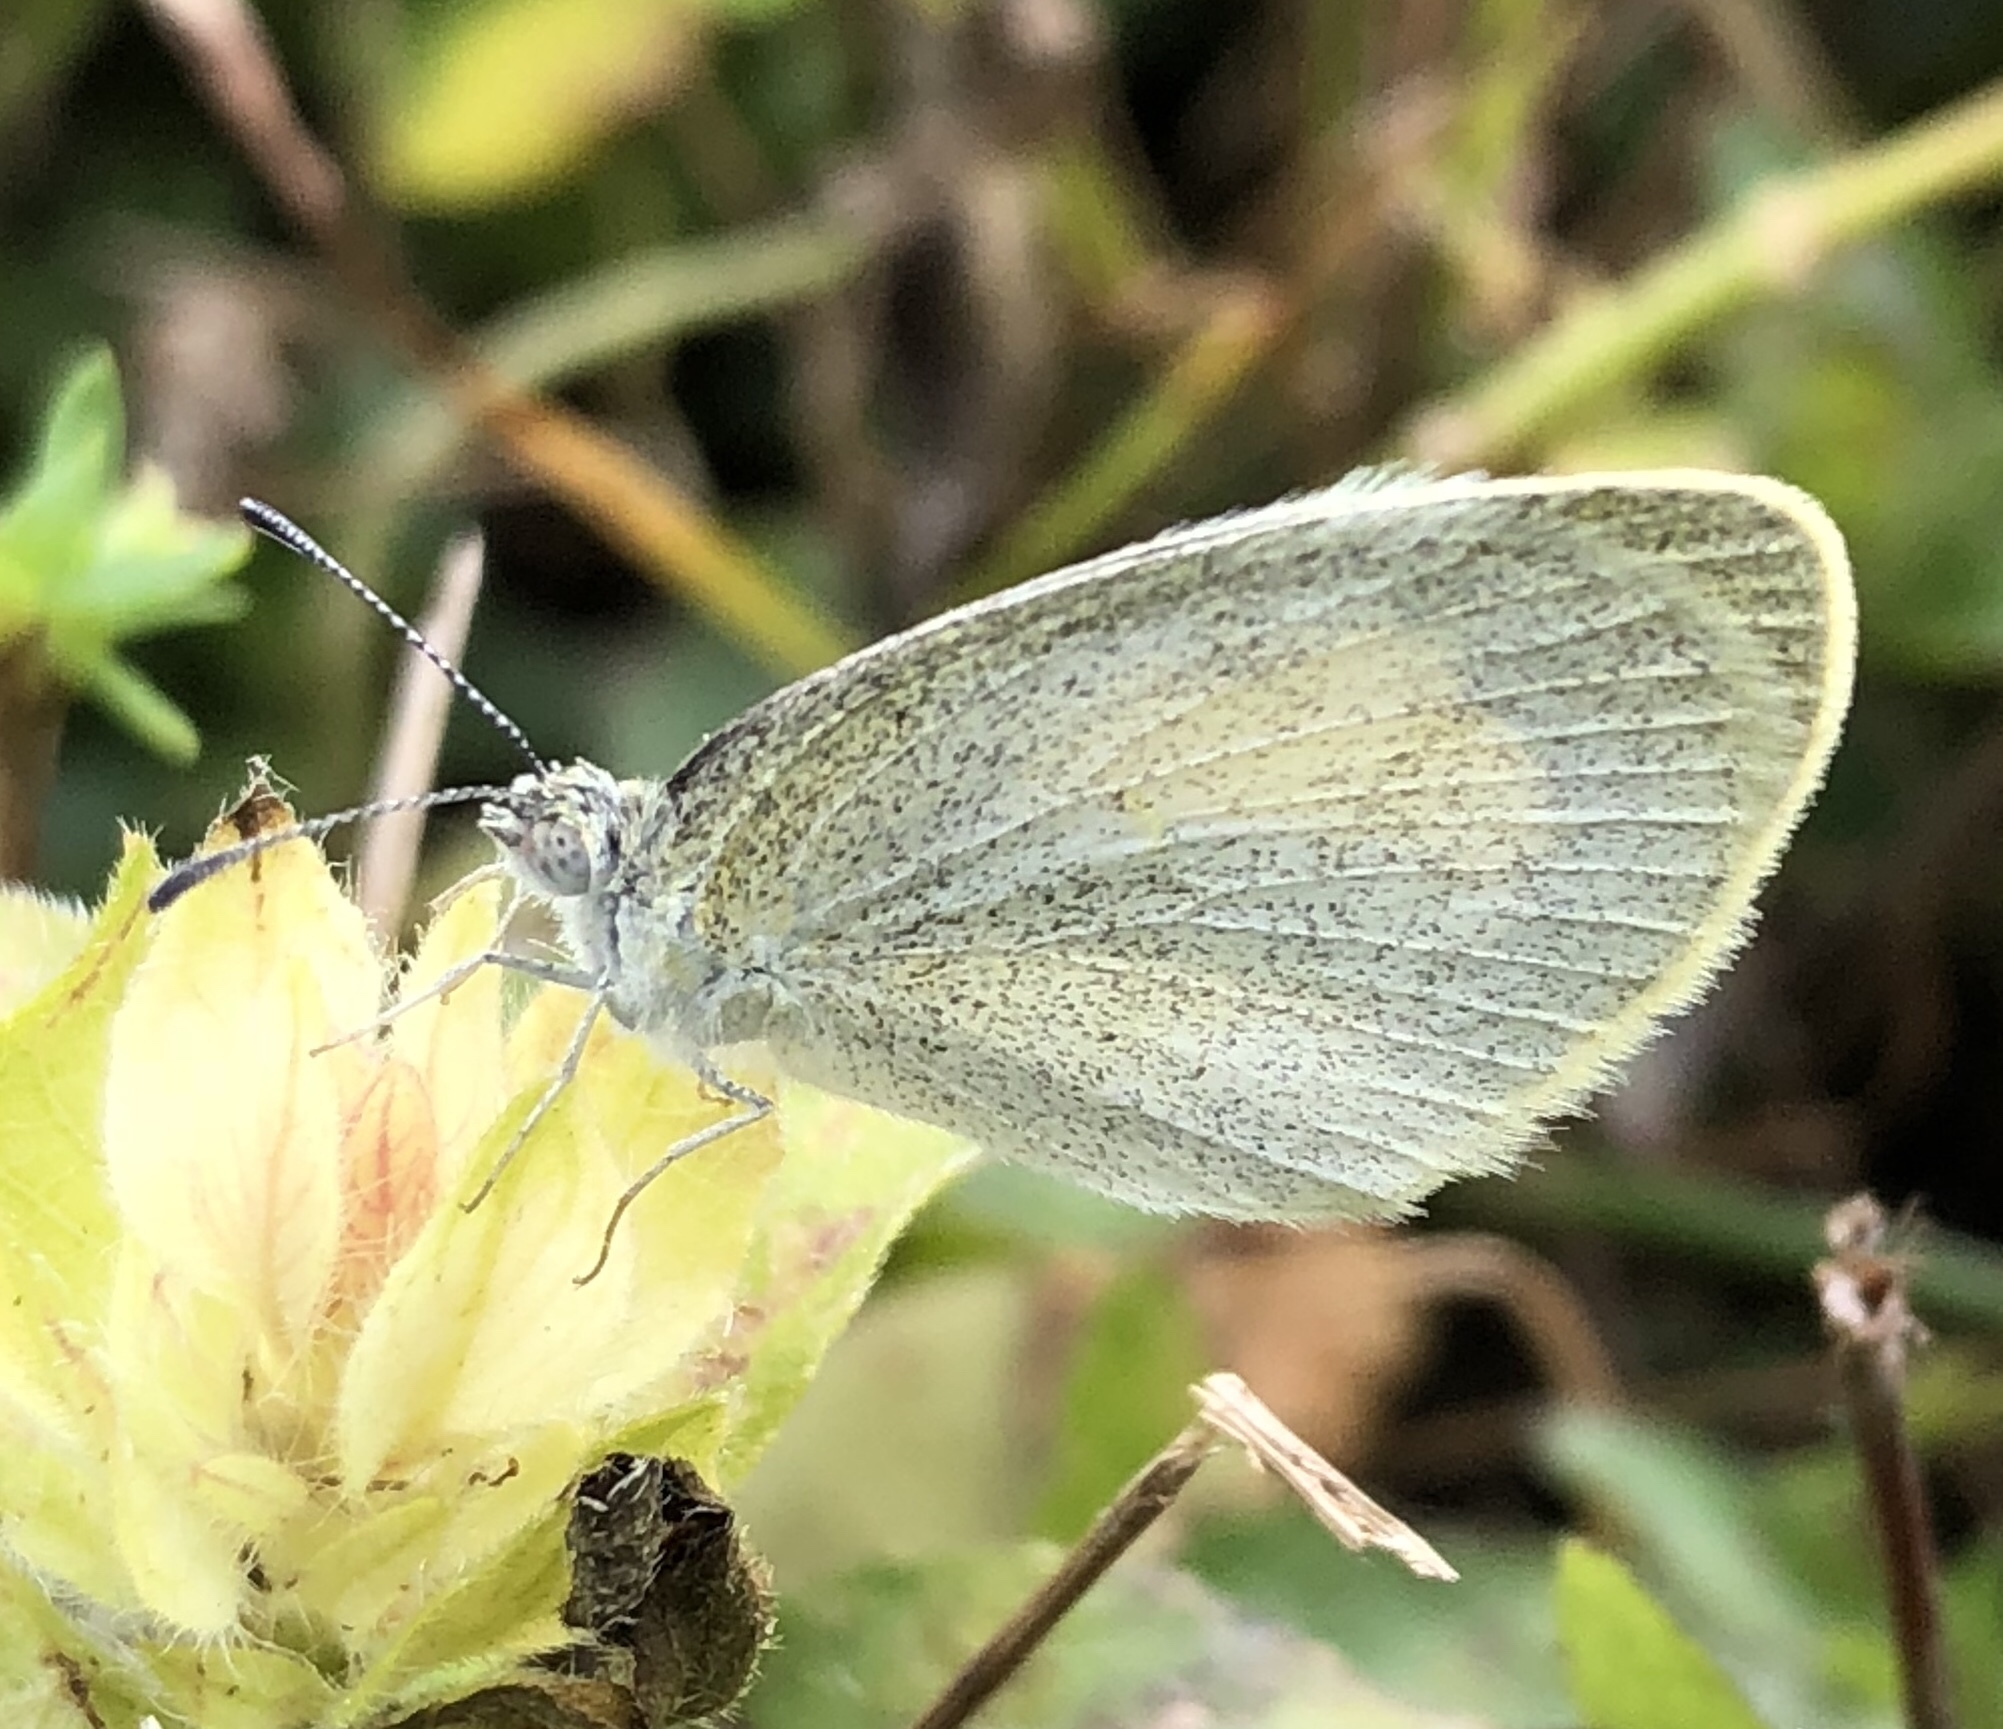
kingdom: Animalia
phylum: Arthropoda
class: Insecta
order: Lepidoptera
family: Pieridae
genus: Eurema
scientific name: Eurema daira
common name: Barred sulphur
